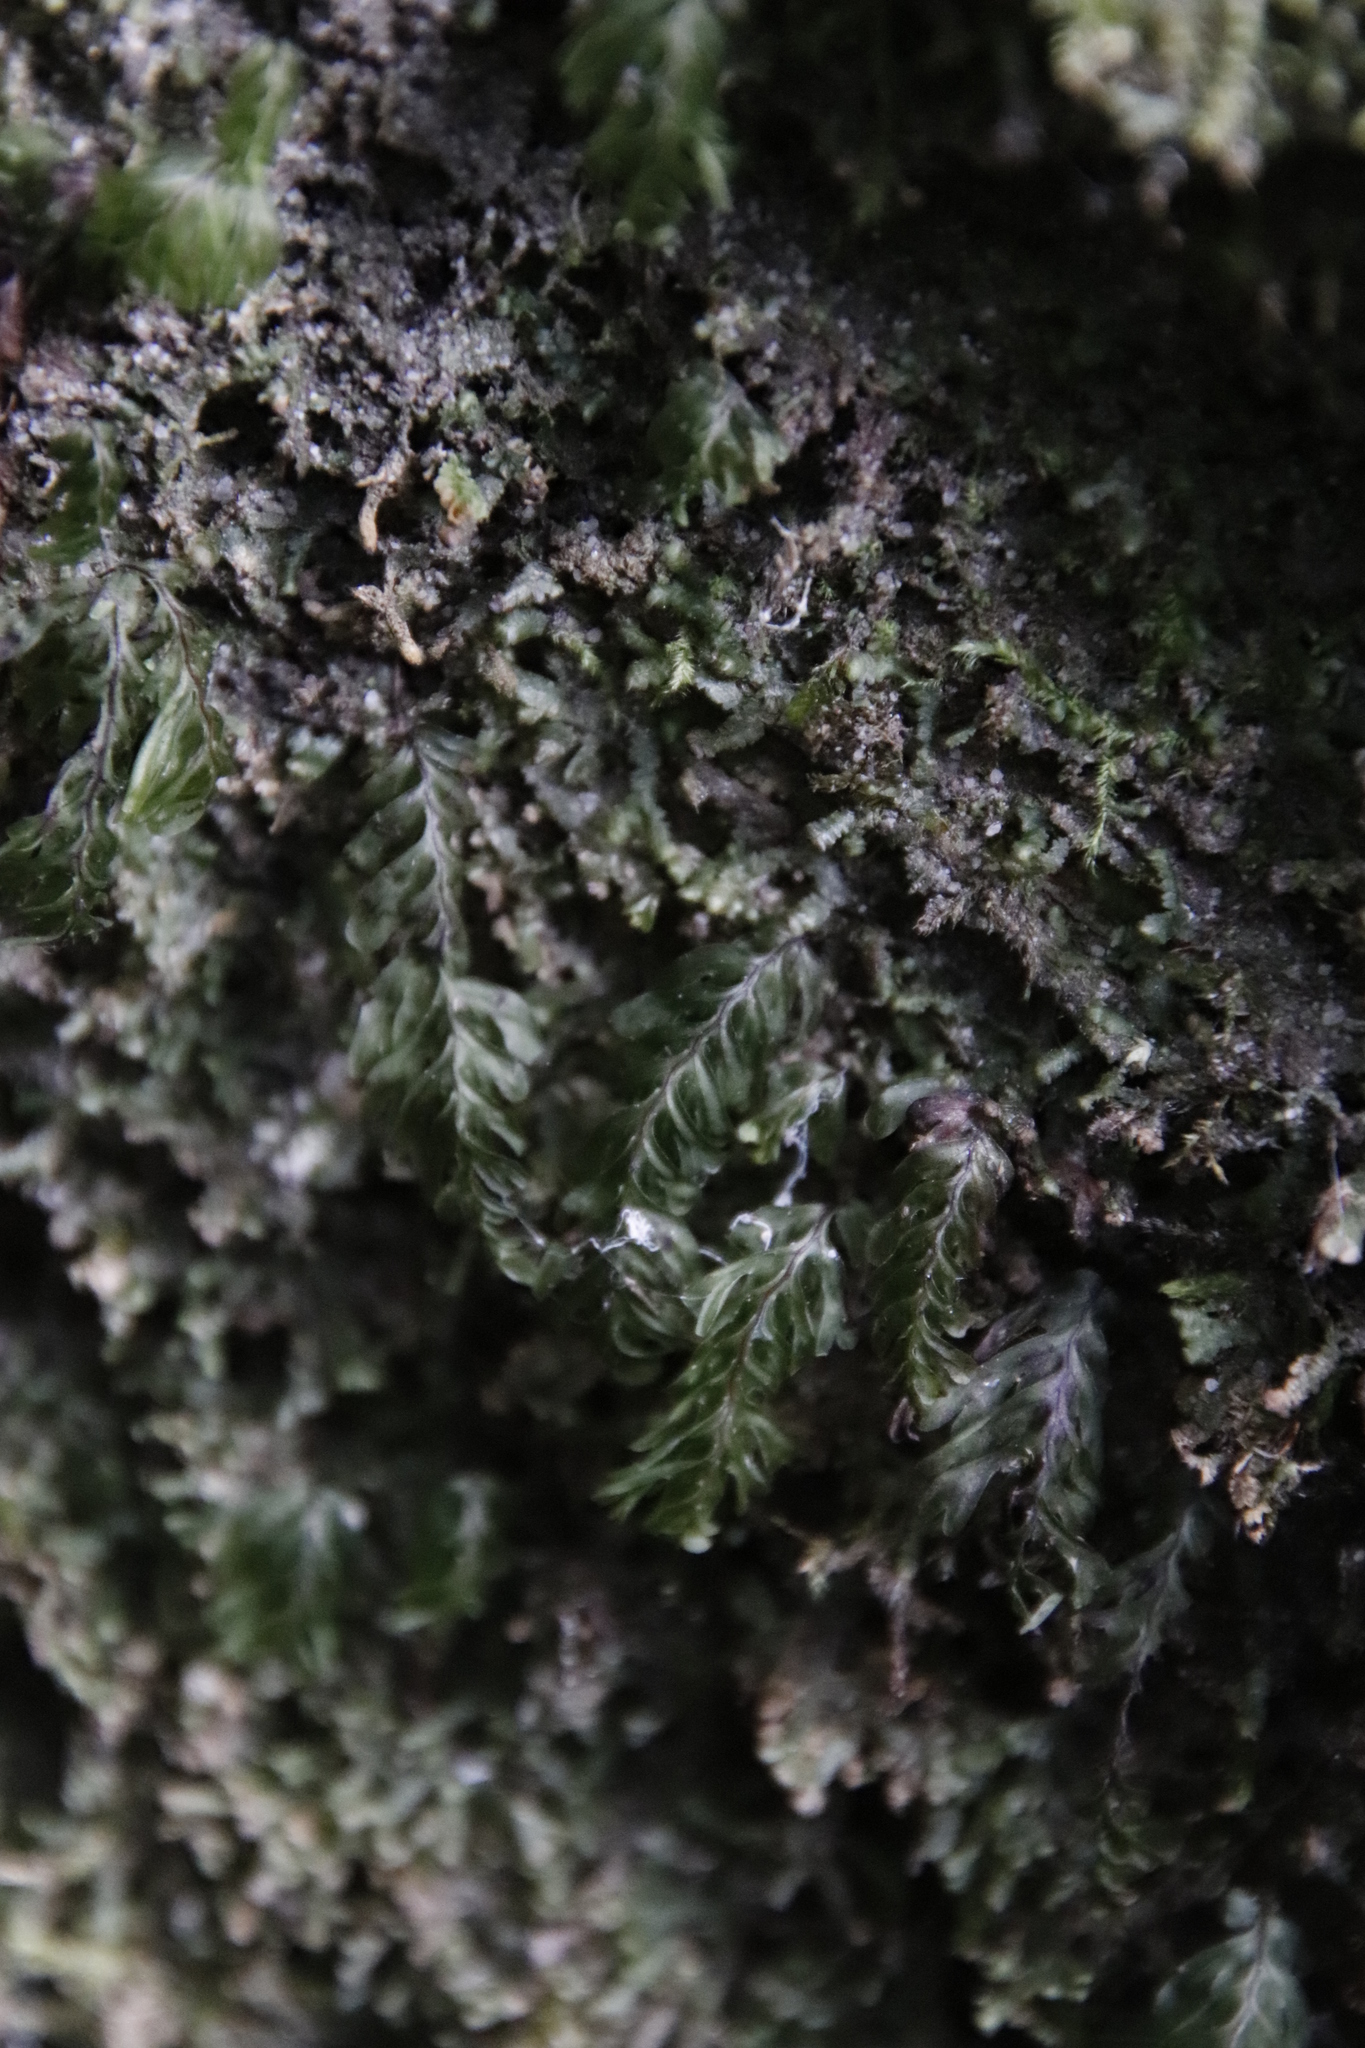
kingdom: Plantae
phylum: Tracheophyta
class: Polypodiopsida
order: Hymenophyllales
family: Hymenophyllaceae
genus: Hymenophyllum
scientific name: Hymenophyllum capense
